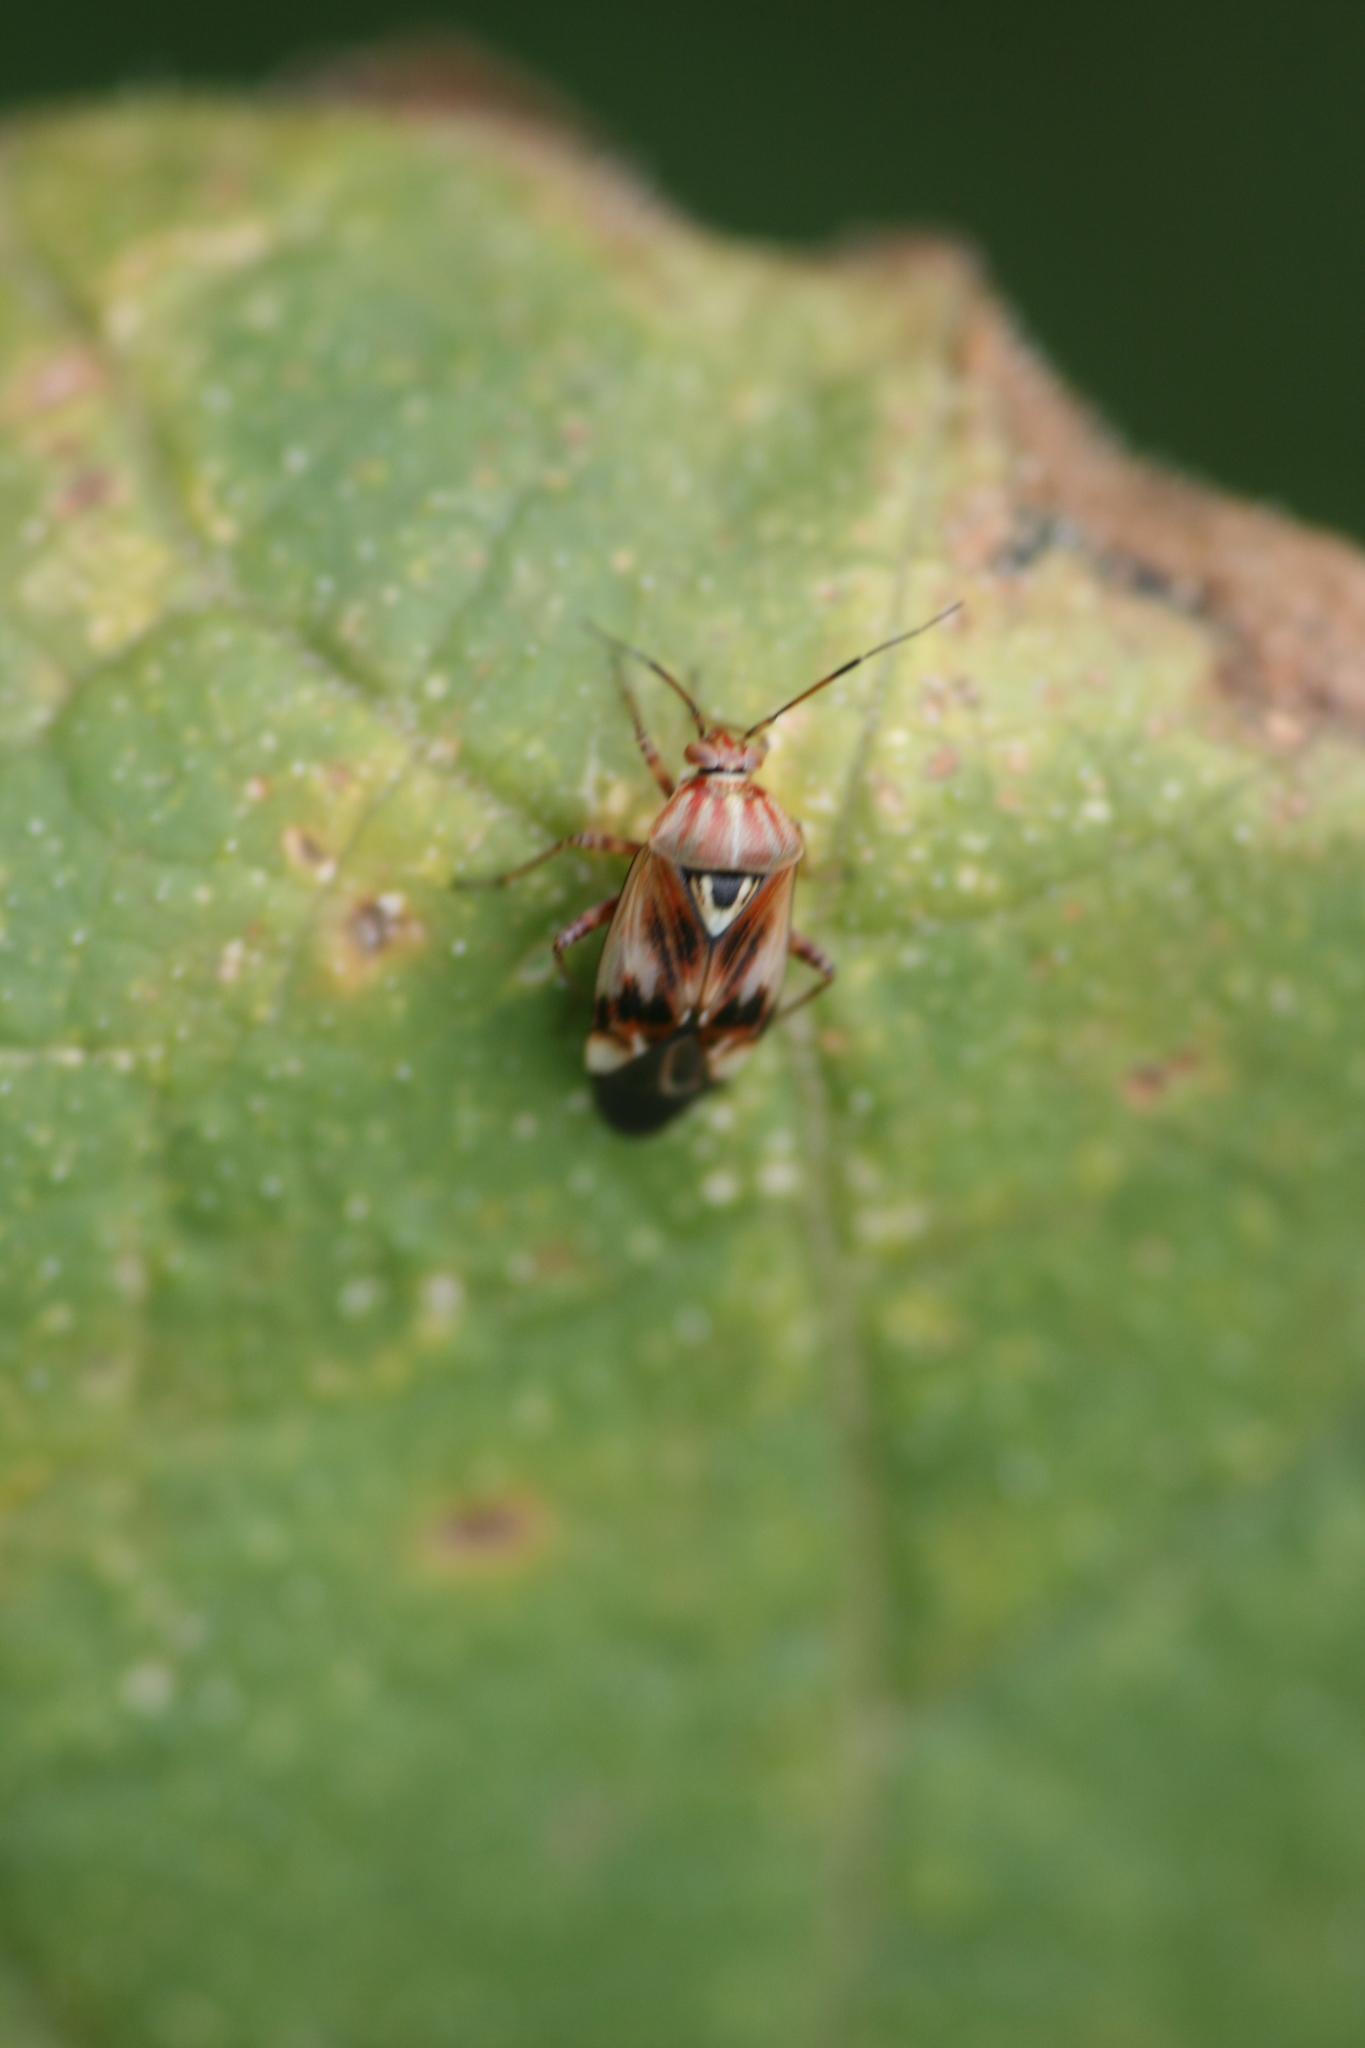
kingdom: Animalia
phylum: Arthropoda
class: Insecta
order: Hemiptera
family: Miridae
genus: Lygus
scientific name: Lygus pratensis
